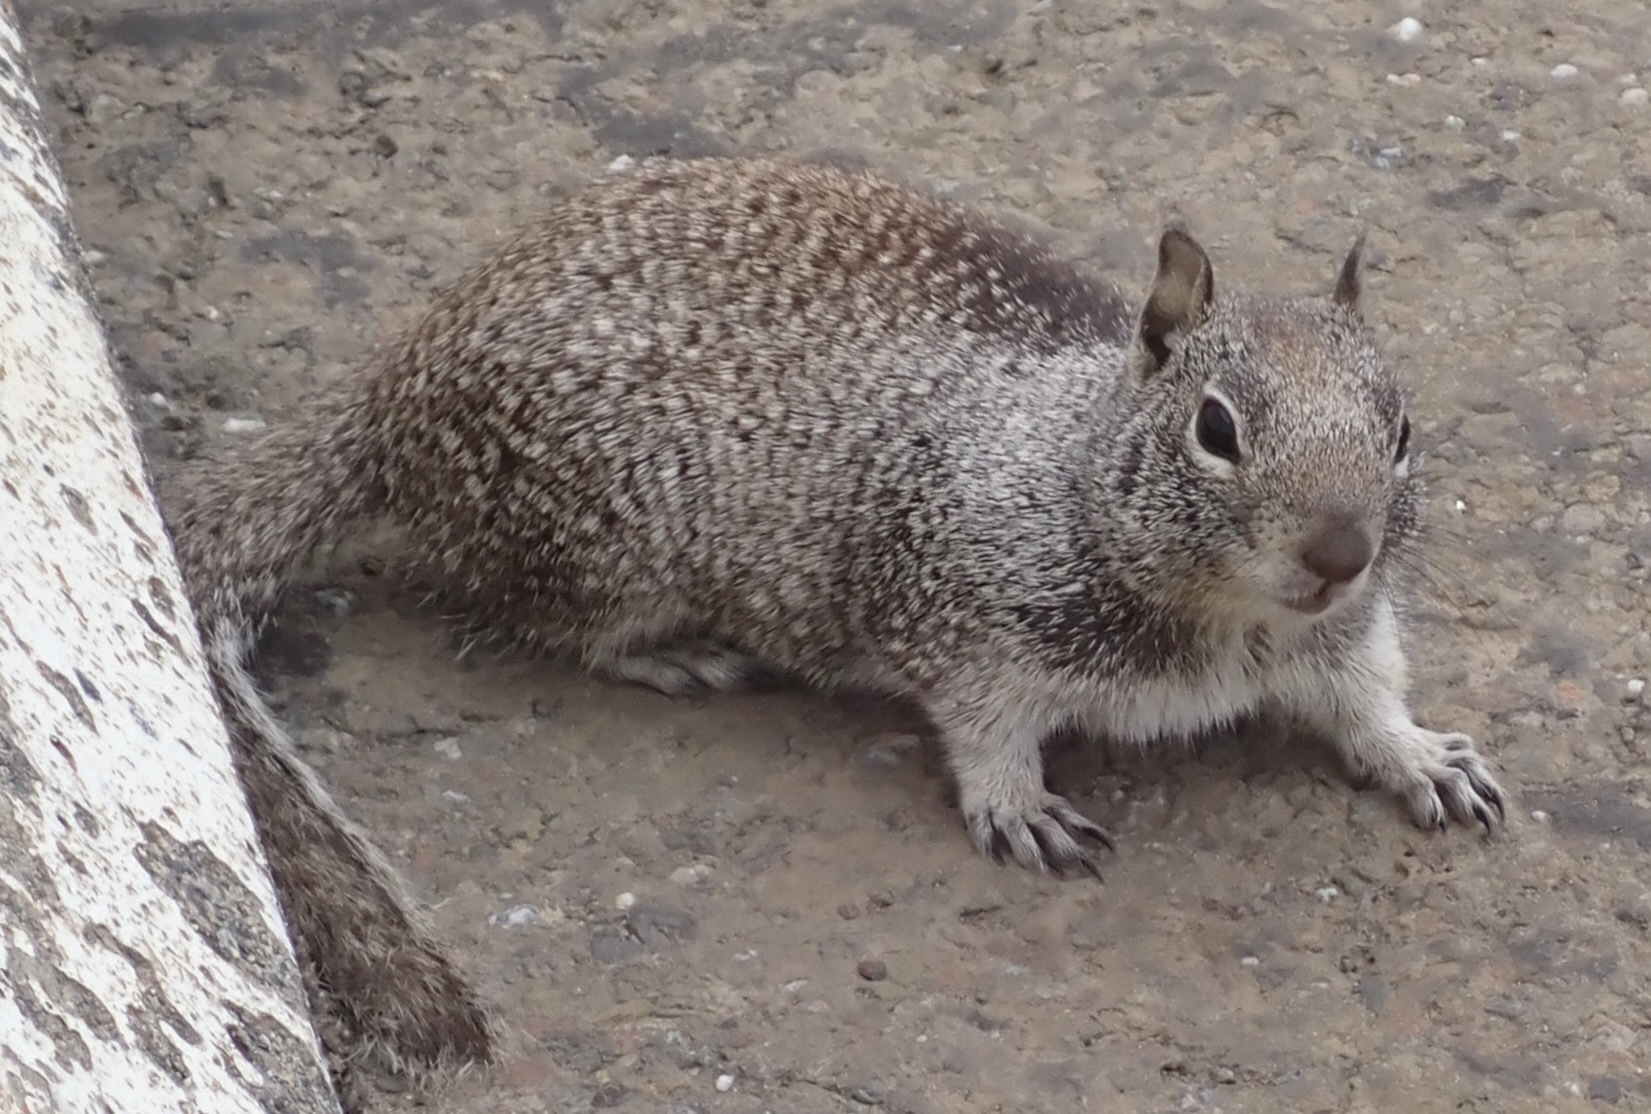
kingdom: Animalia
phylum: Chordata
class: Mammalia
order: Rodentia
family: Sciuridae
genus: Otospermophilus
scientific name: Otospermophilus beecheyi
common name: California ground squirrel
